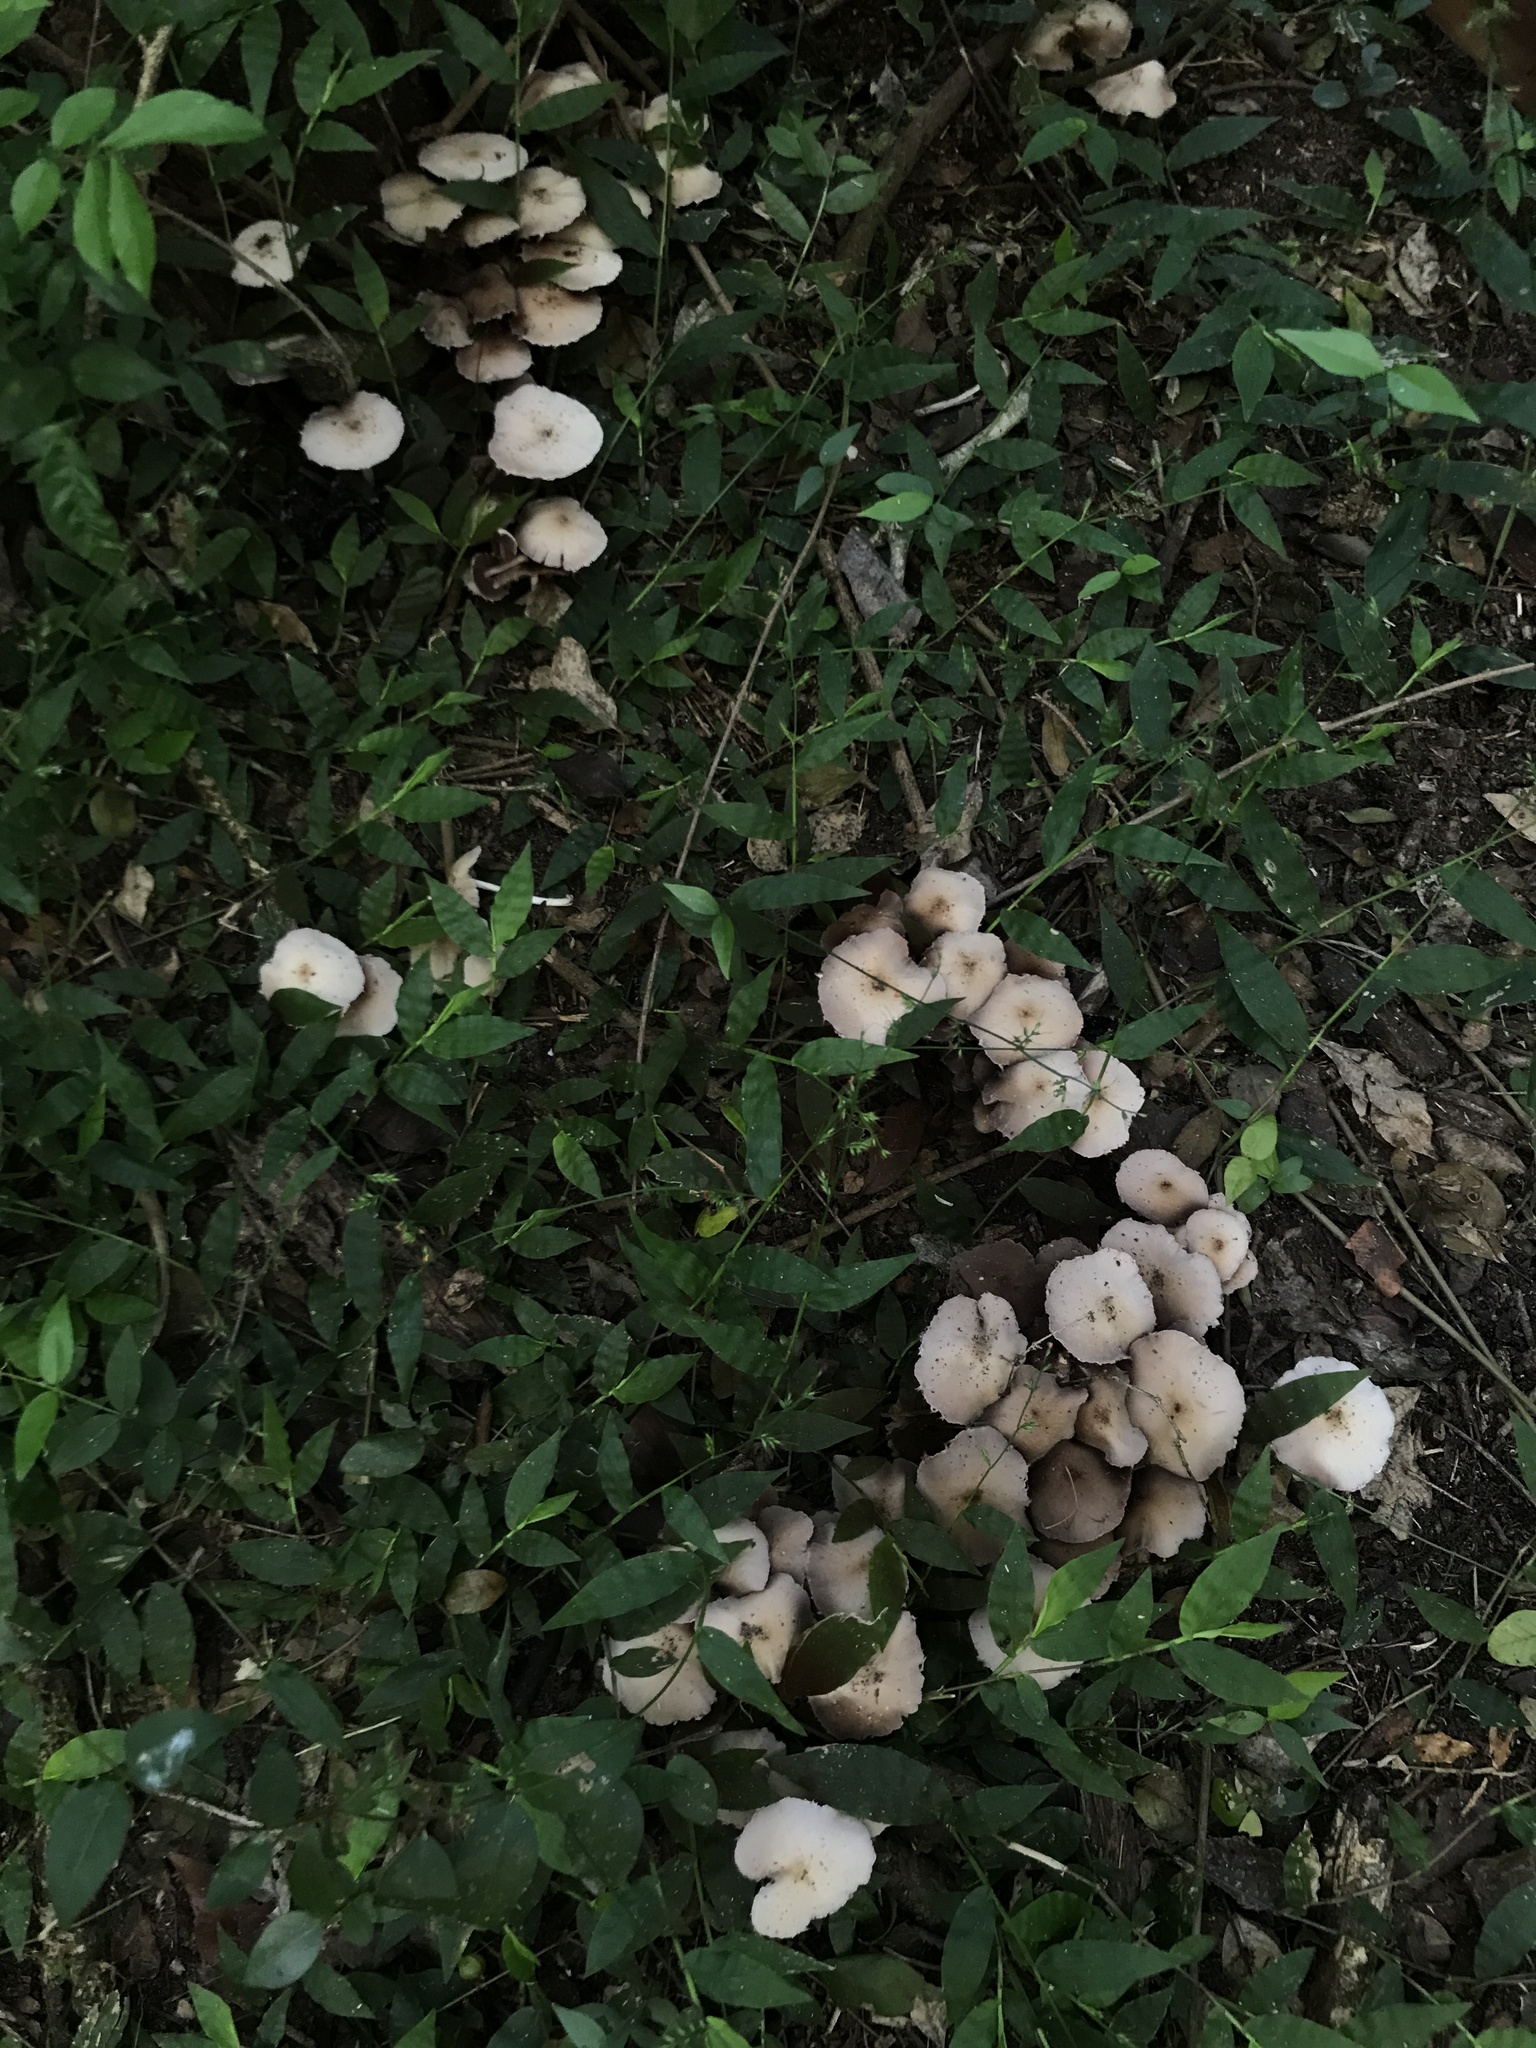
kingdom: Fungi
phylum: Basidiomycota
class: Agaricomycetes
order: Agaricales
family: Psathyrellaceae
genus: Candolleomyces
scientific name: Candolleomyces candolleanus
